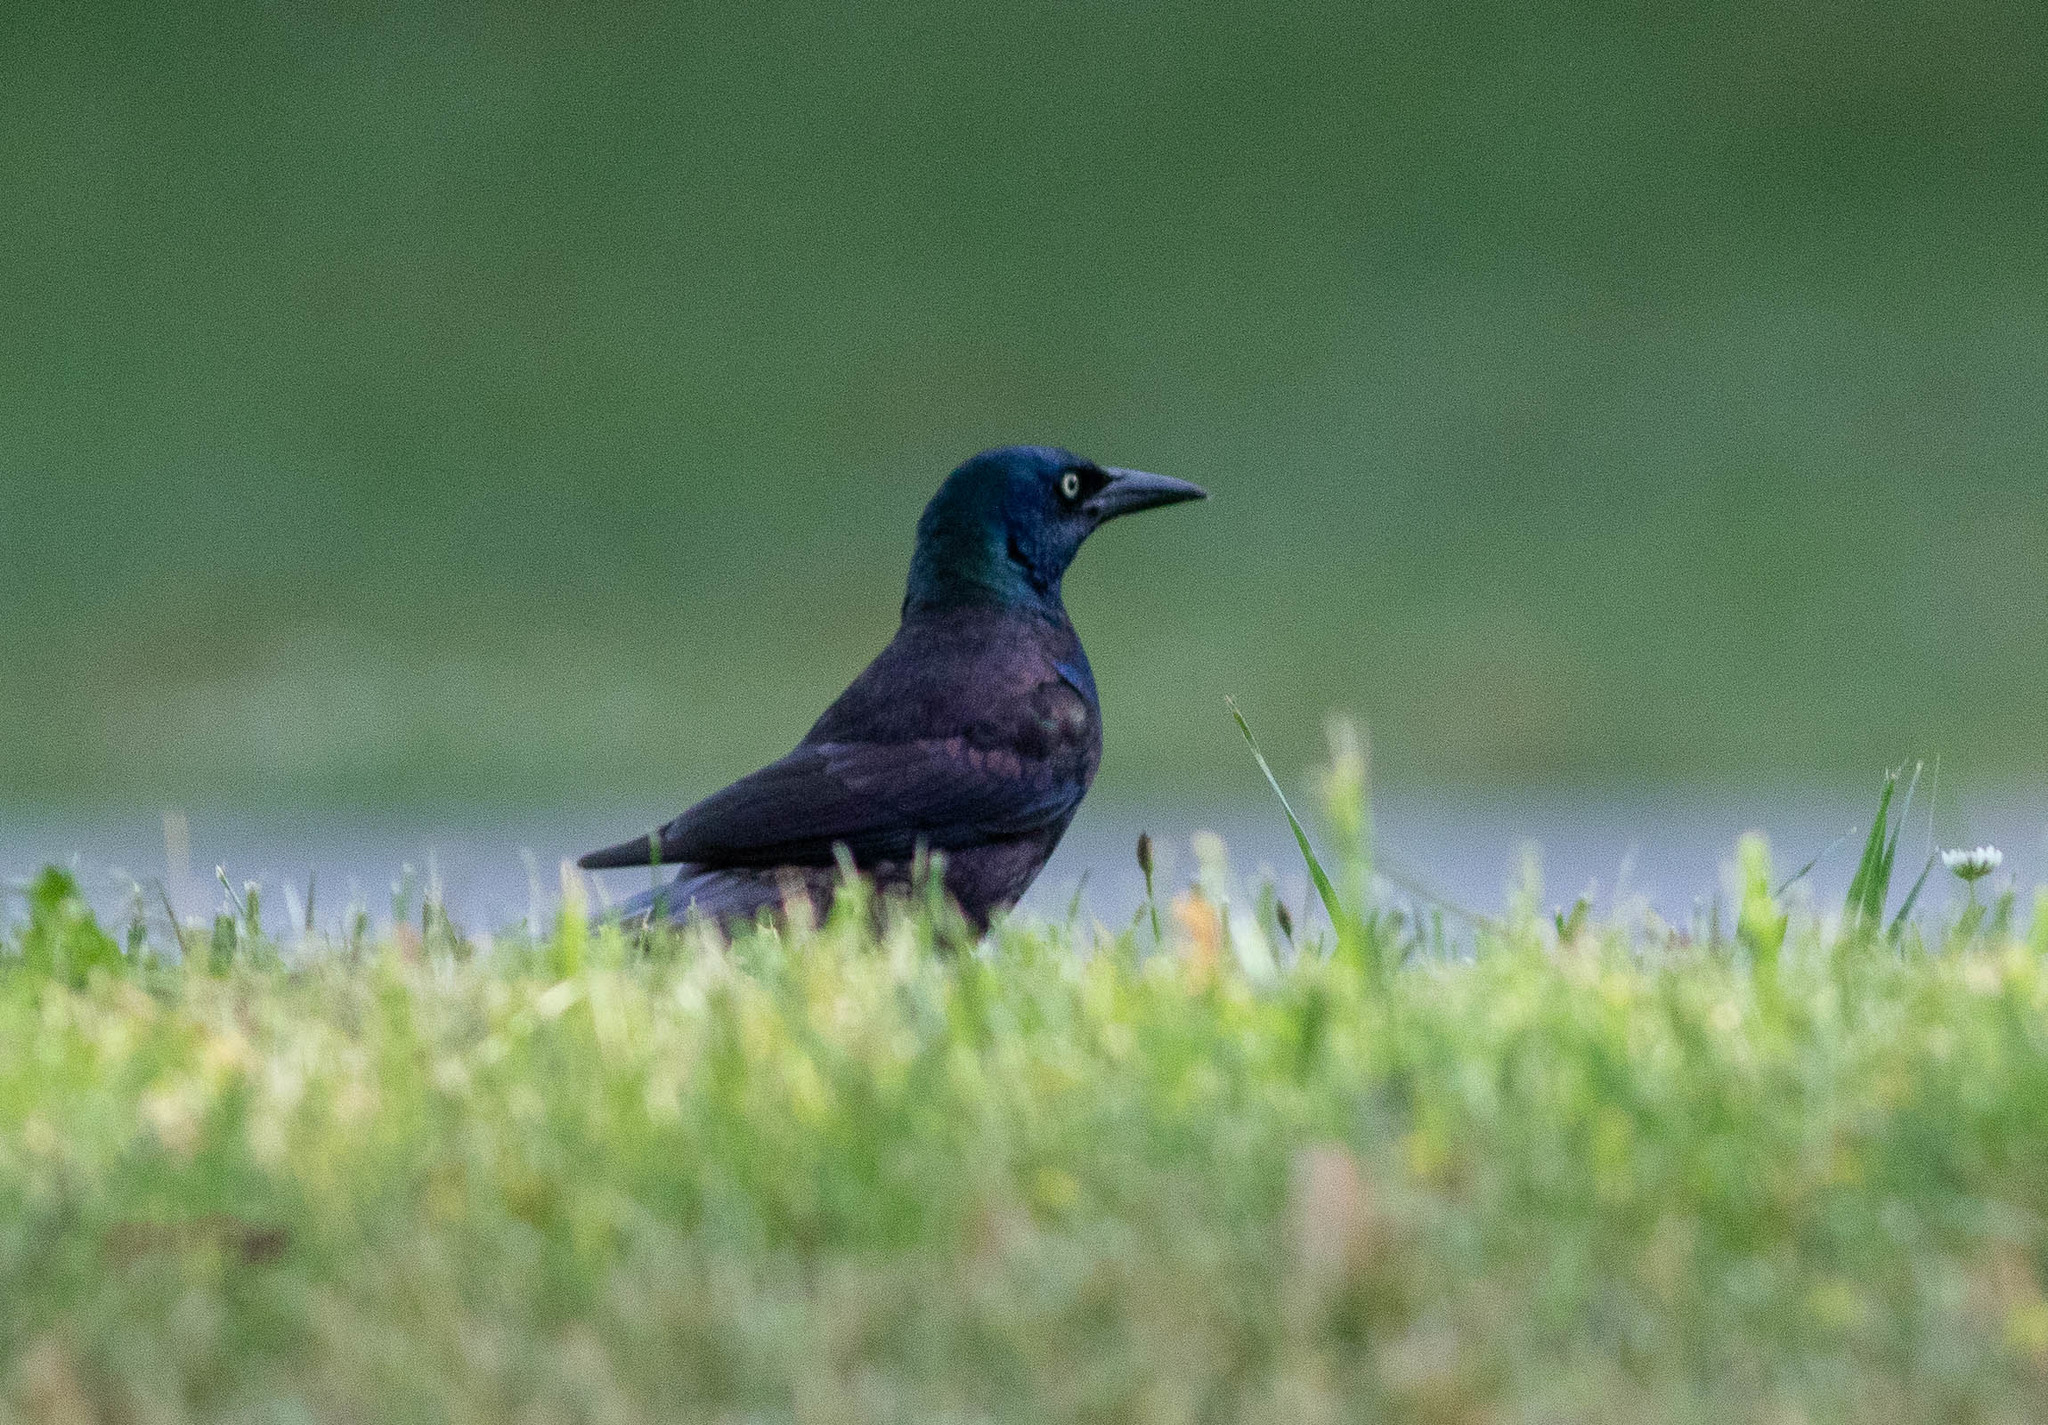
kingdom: Animalia
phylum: Chordata
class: Aves
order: Passeriformes
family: Icteridae
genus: Quiscalus
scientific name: Quiscalus quiscula
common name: Common grackle
